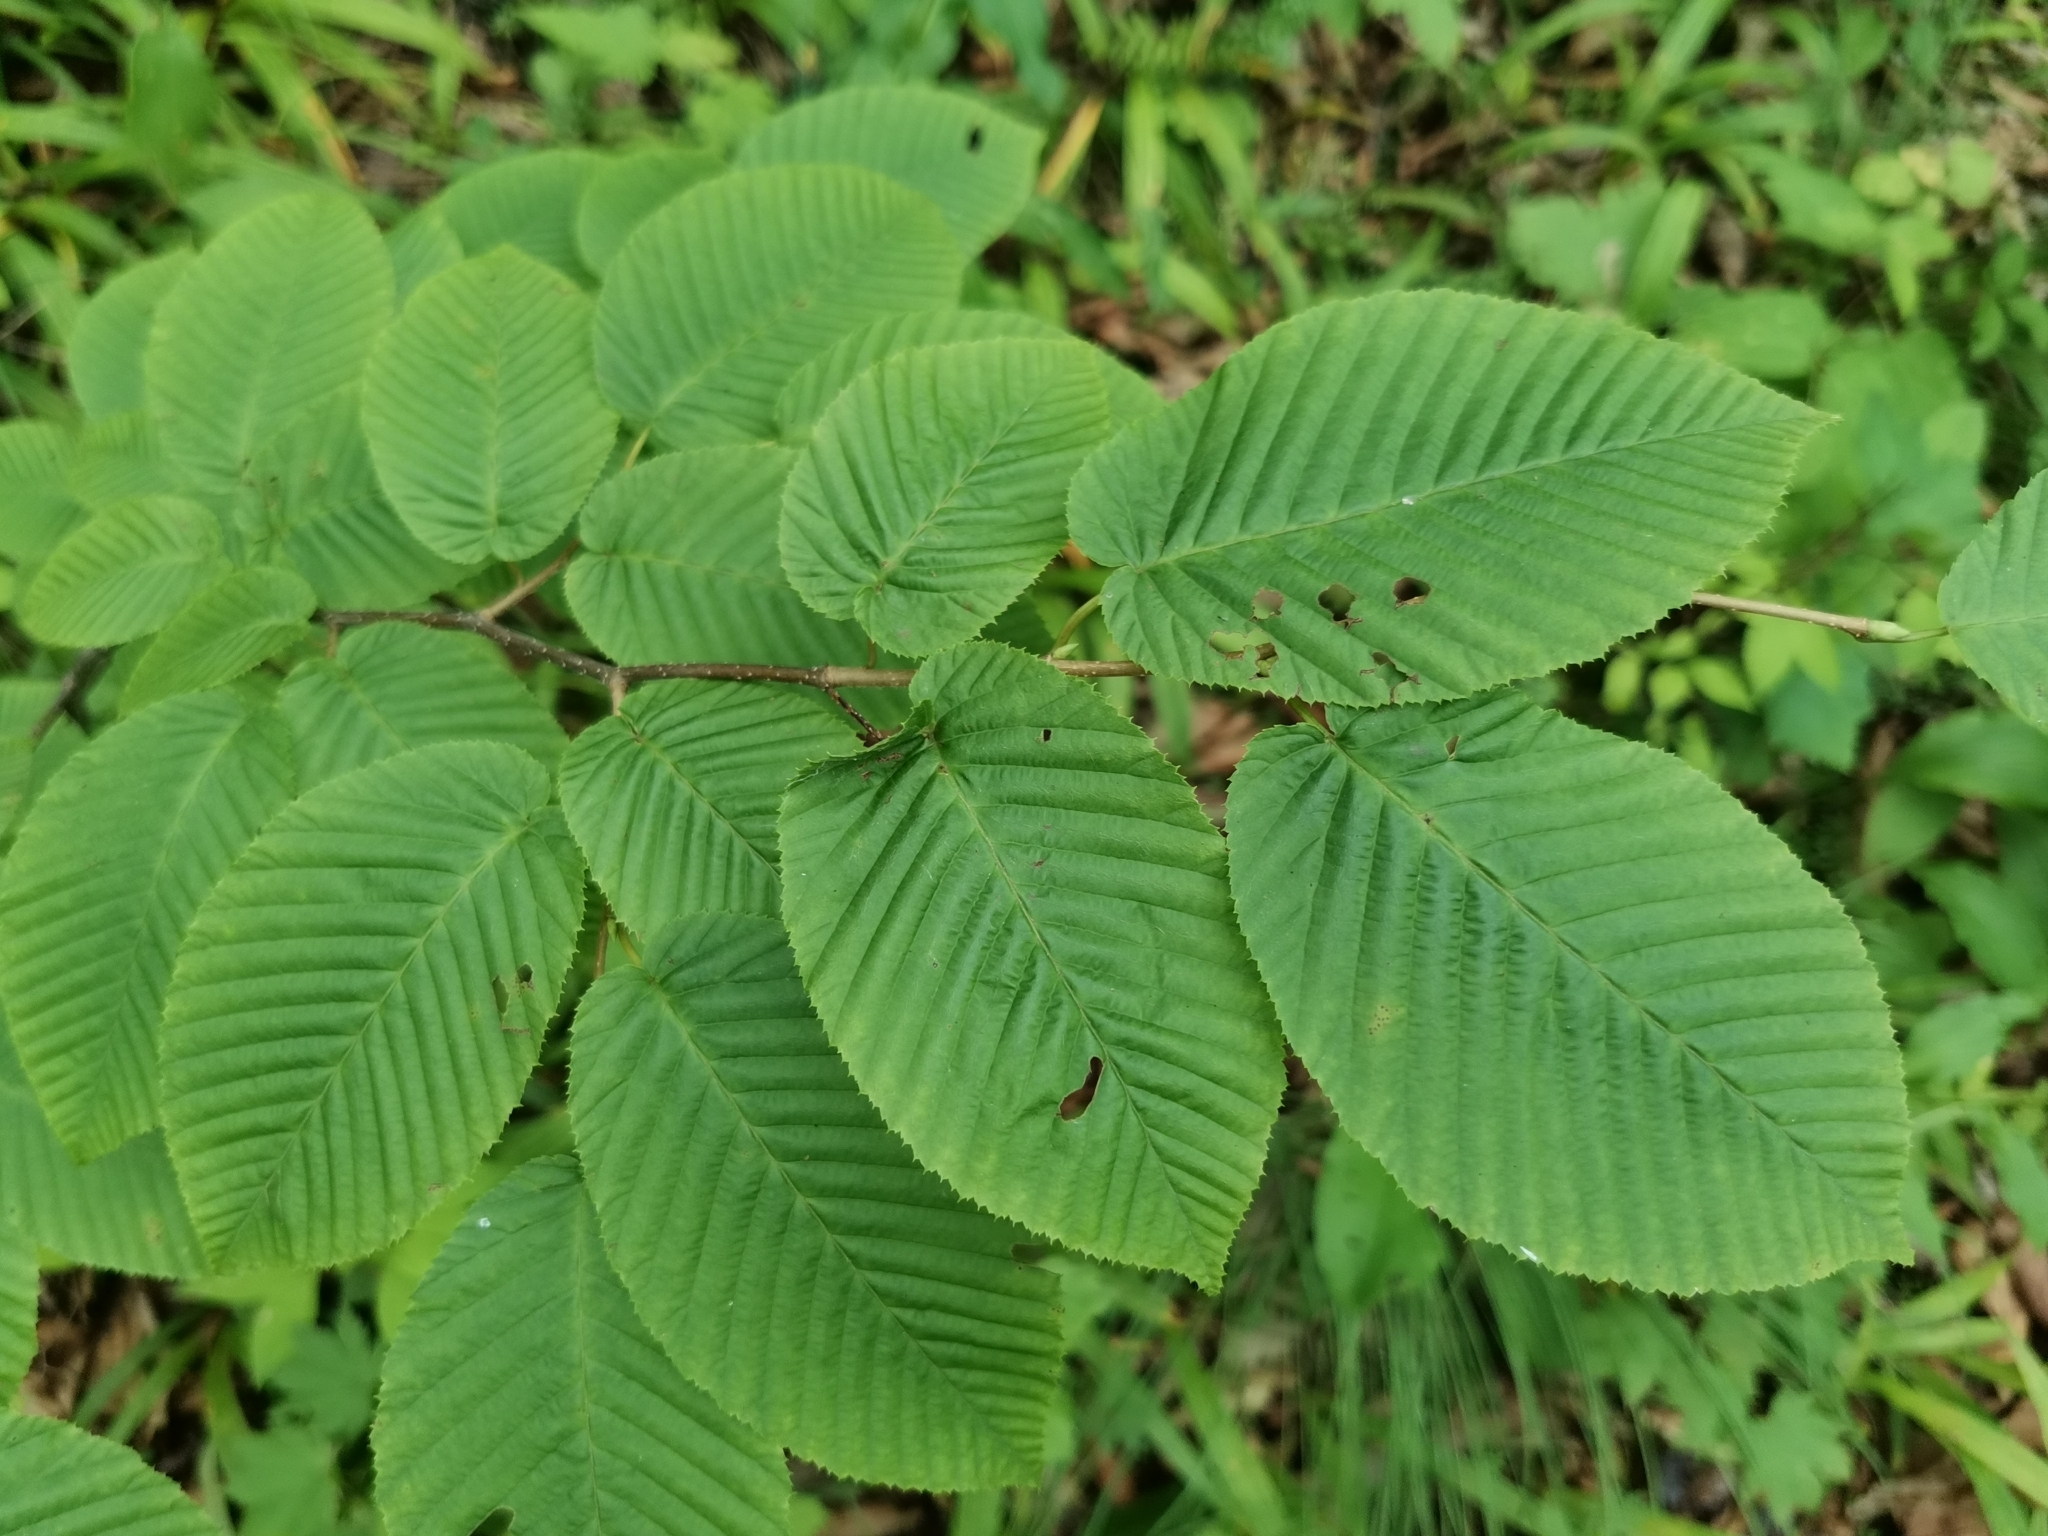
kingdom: Plantae
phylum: Tracheophyta
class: Magnoliopsida
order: Fagales
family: Betulaceae
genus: Carpinus
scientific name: Carpinus cordata
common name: Sawa hornbeam
